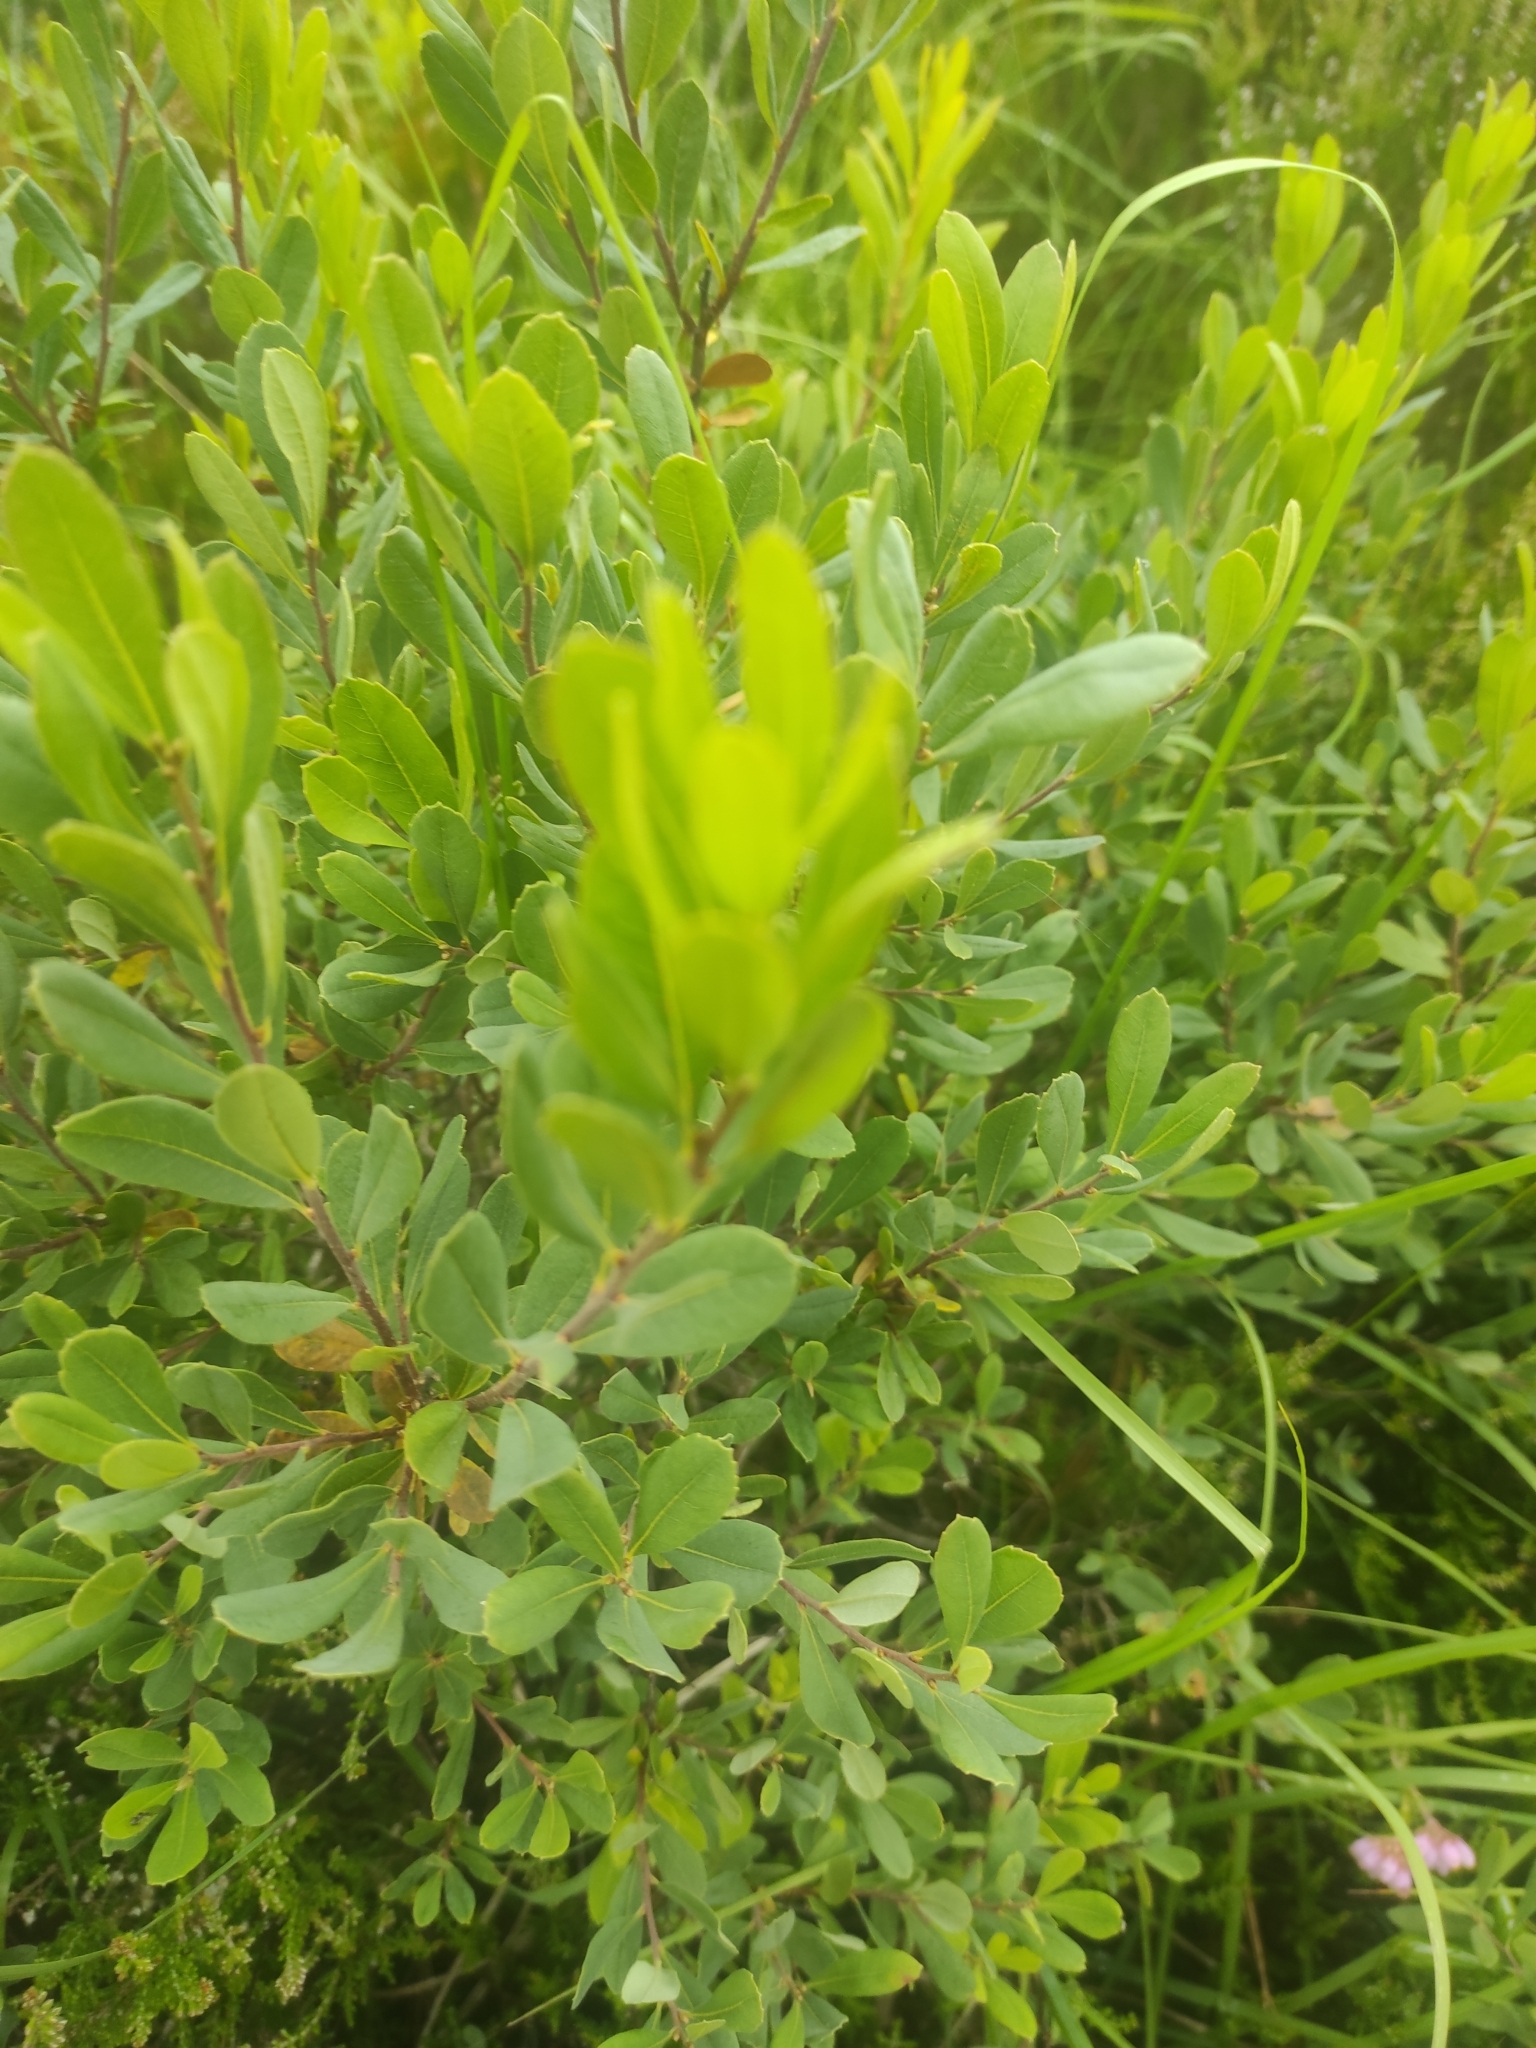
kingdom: Plantae
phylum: Tracheophyta
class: Magnoliopsida
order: Fagales
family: Myricaceae
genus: Myrica
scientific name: Myrica gale
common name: Sweet gale
